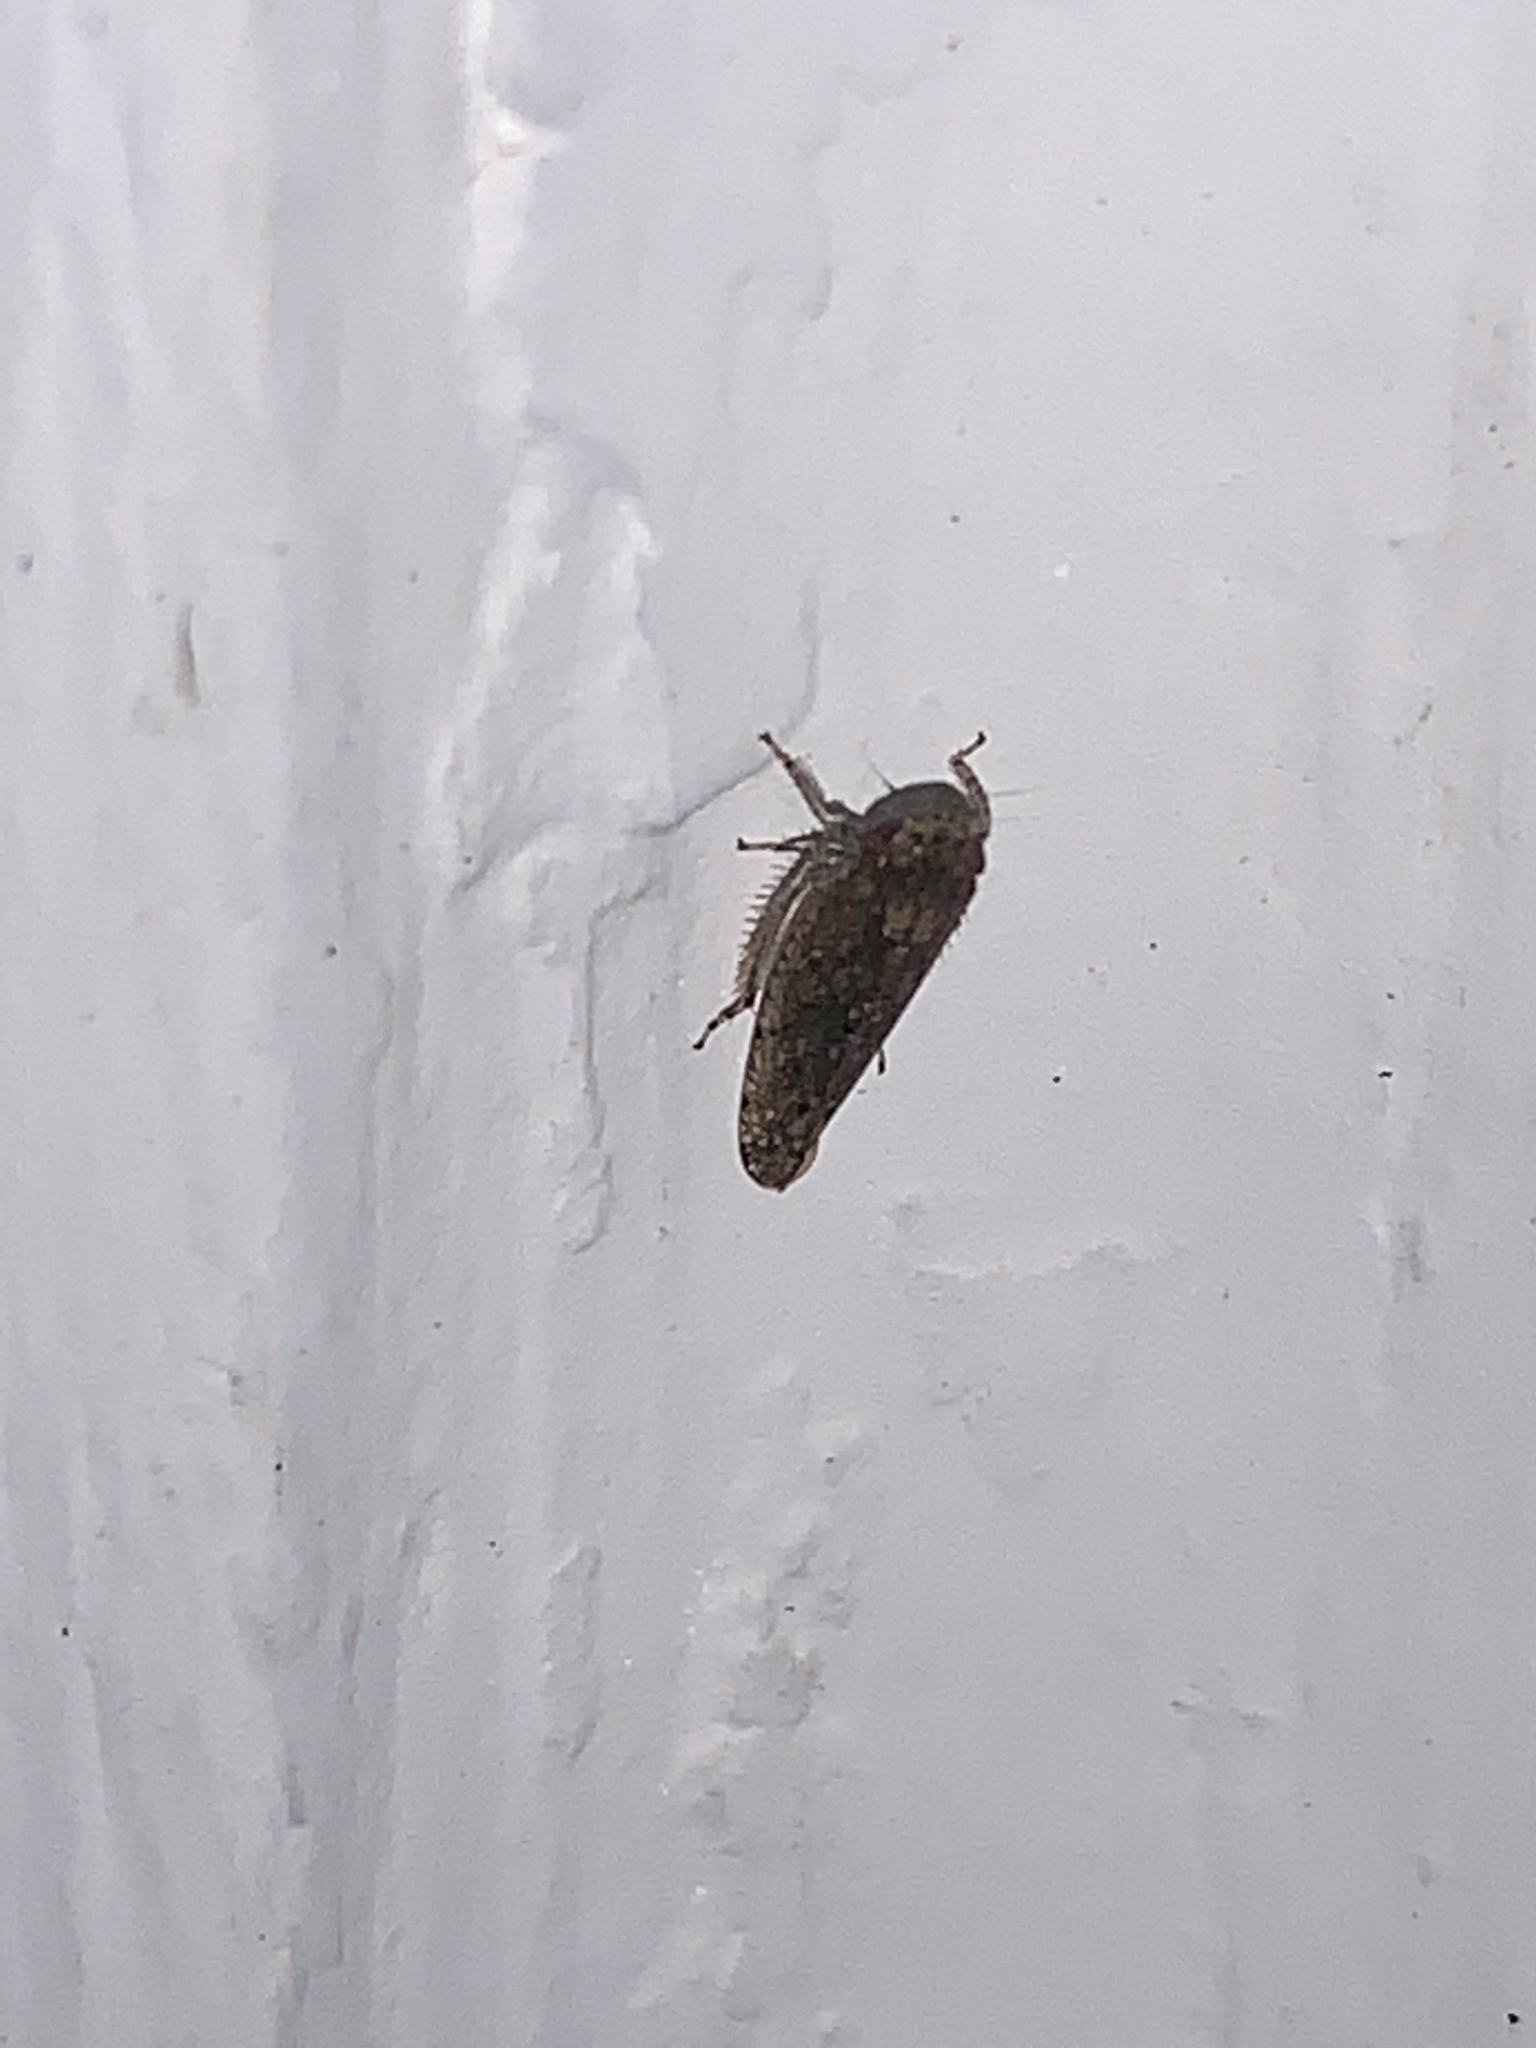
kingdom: Animalia
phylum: Arthropoda
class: Insecta
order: Hemiptera
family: Cicadellidae
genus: Paraphlepsius
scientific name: Paraphlepsius
